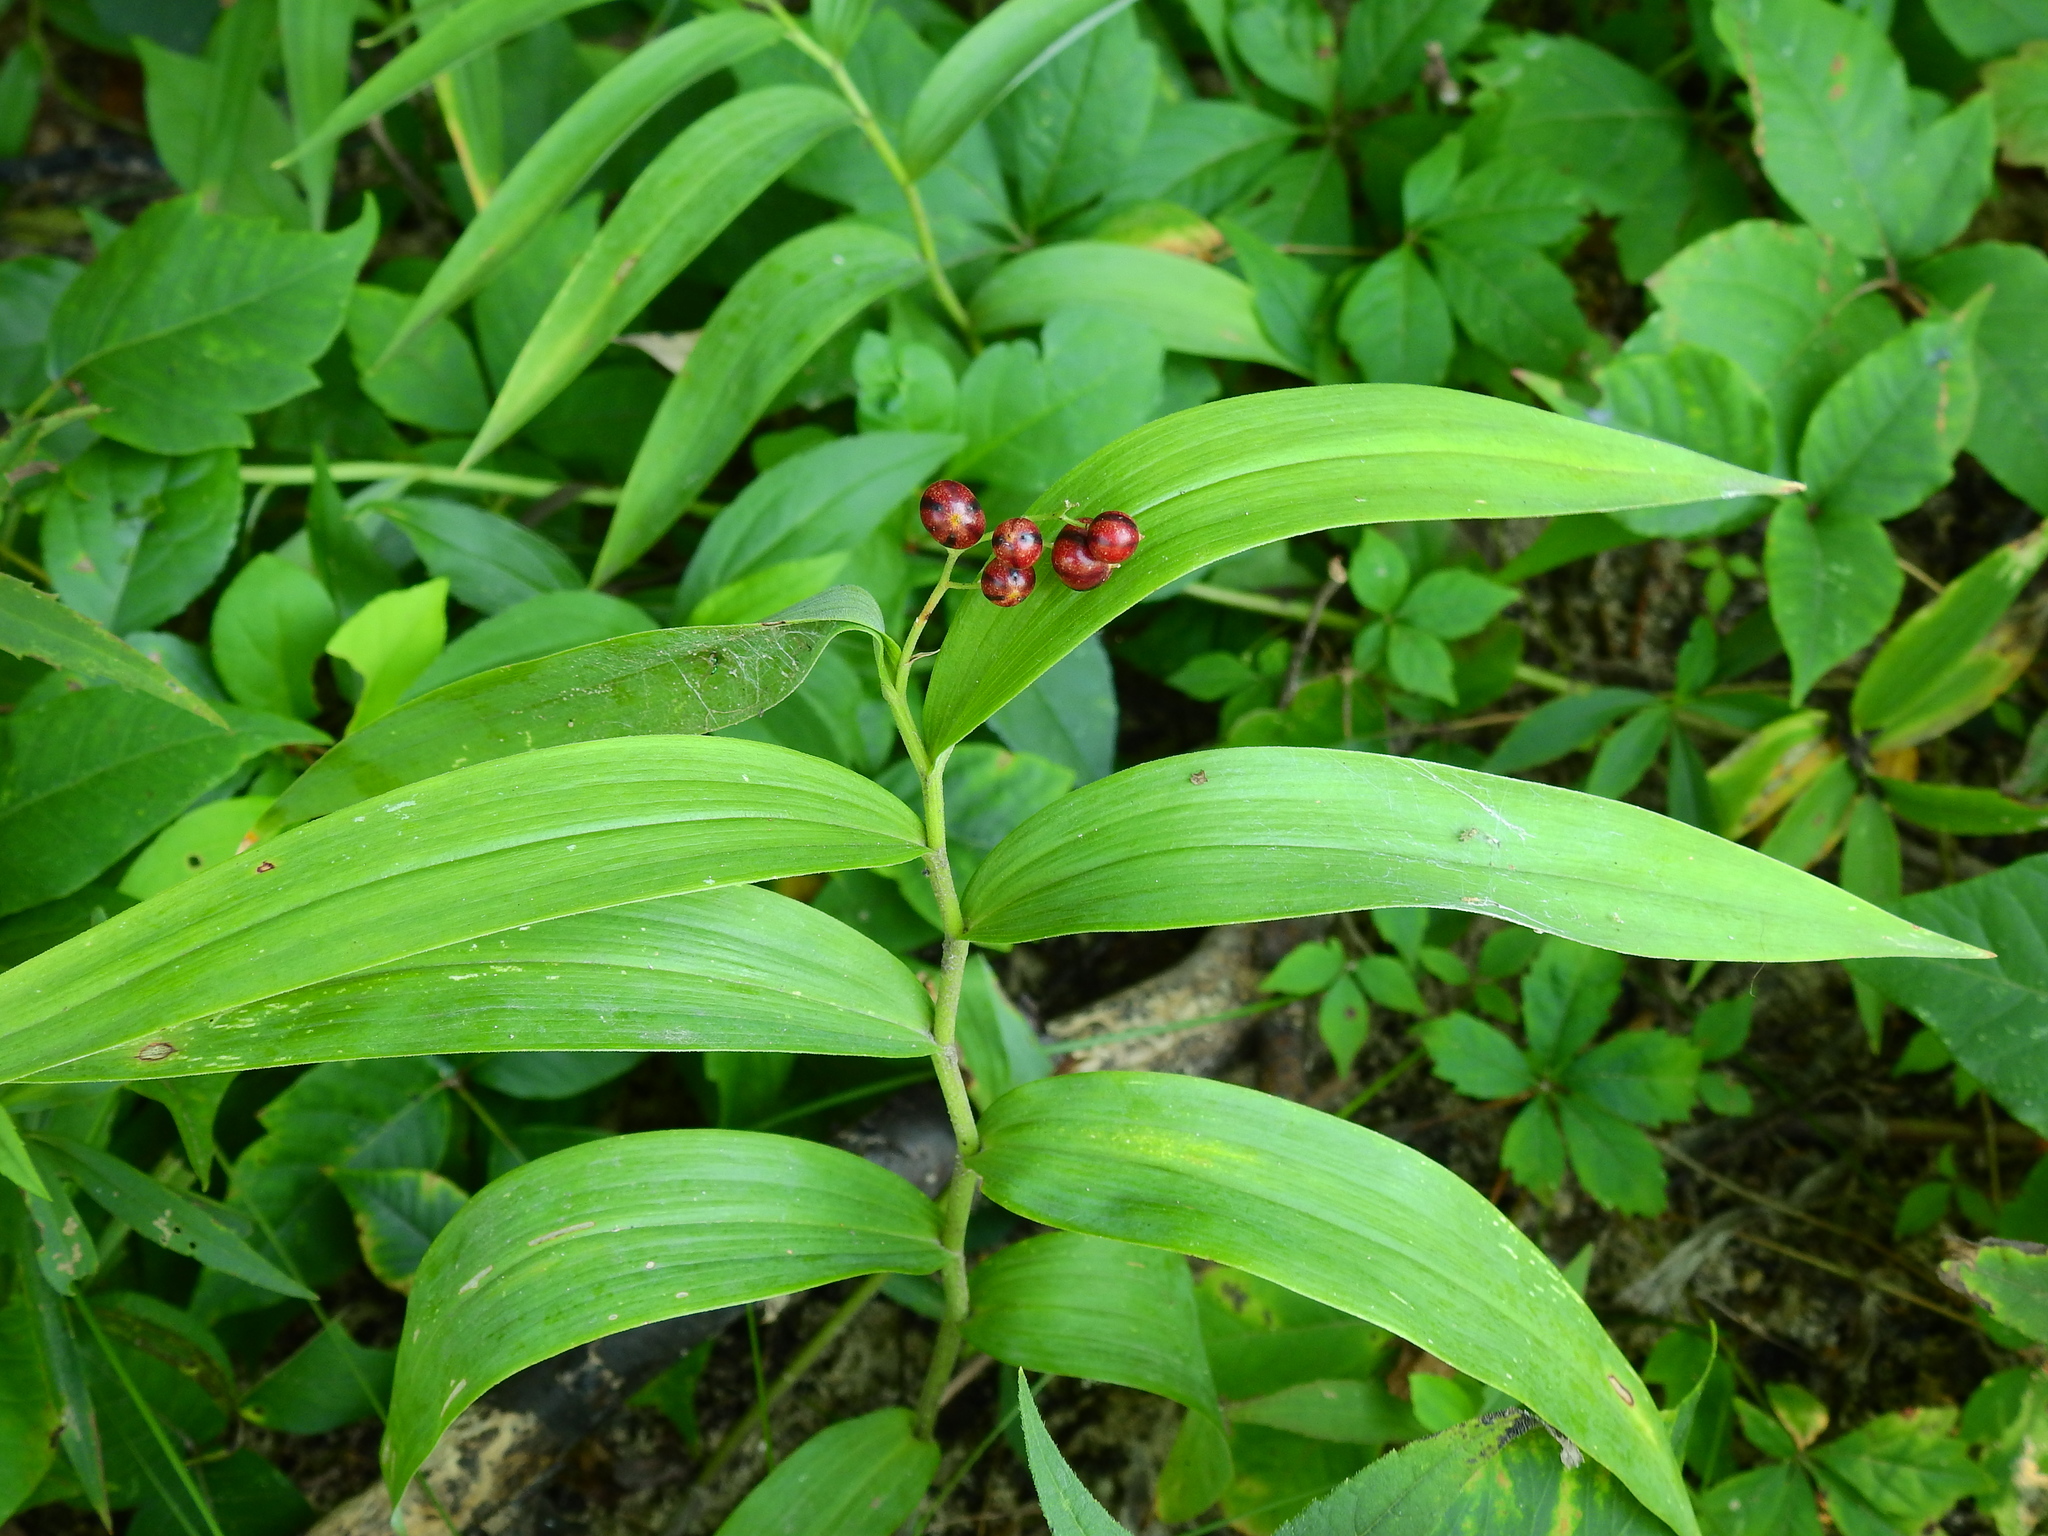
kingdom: Plantae
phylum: Tracheophyta
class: Liliopsida
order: Asparagales
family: Asparagaceae
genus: Maianthemum
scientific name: Maianthemum stellatum
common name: Little false solomon's seal
